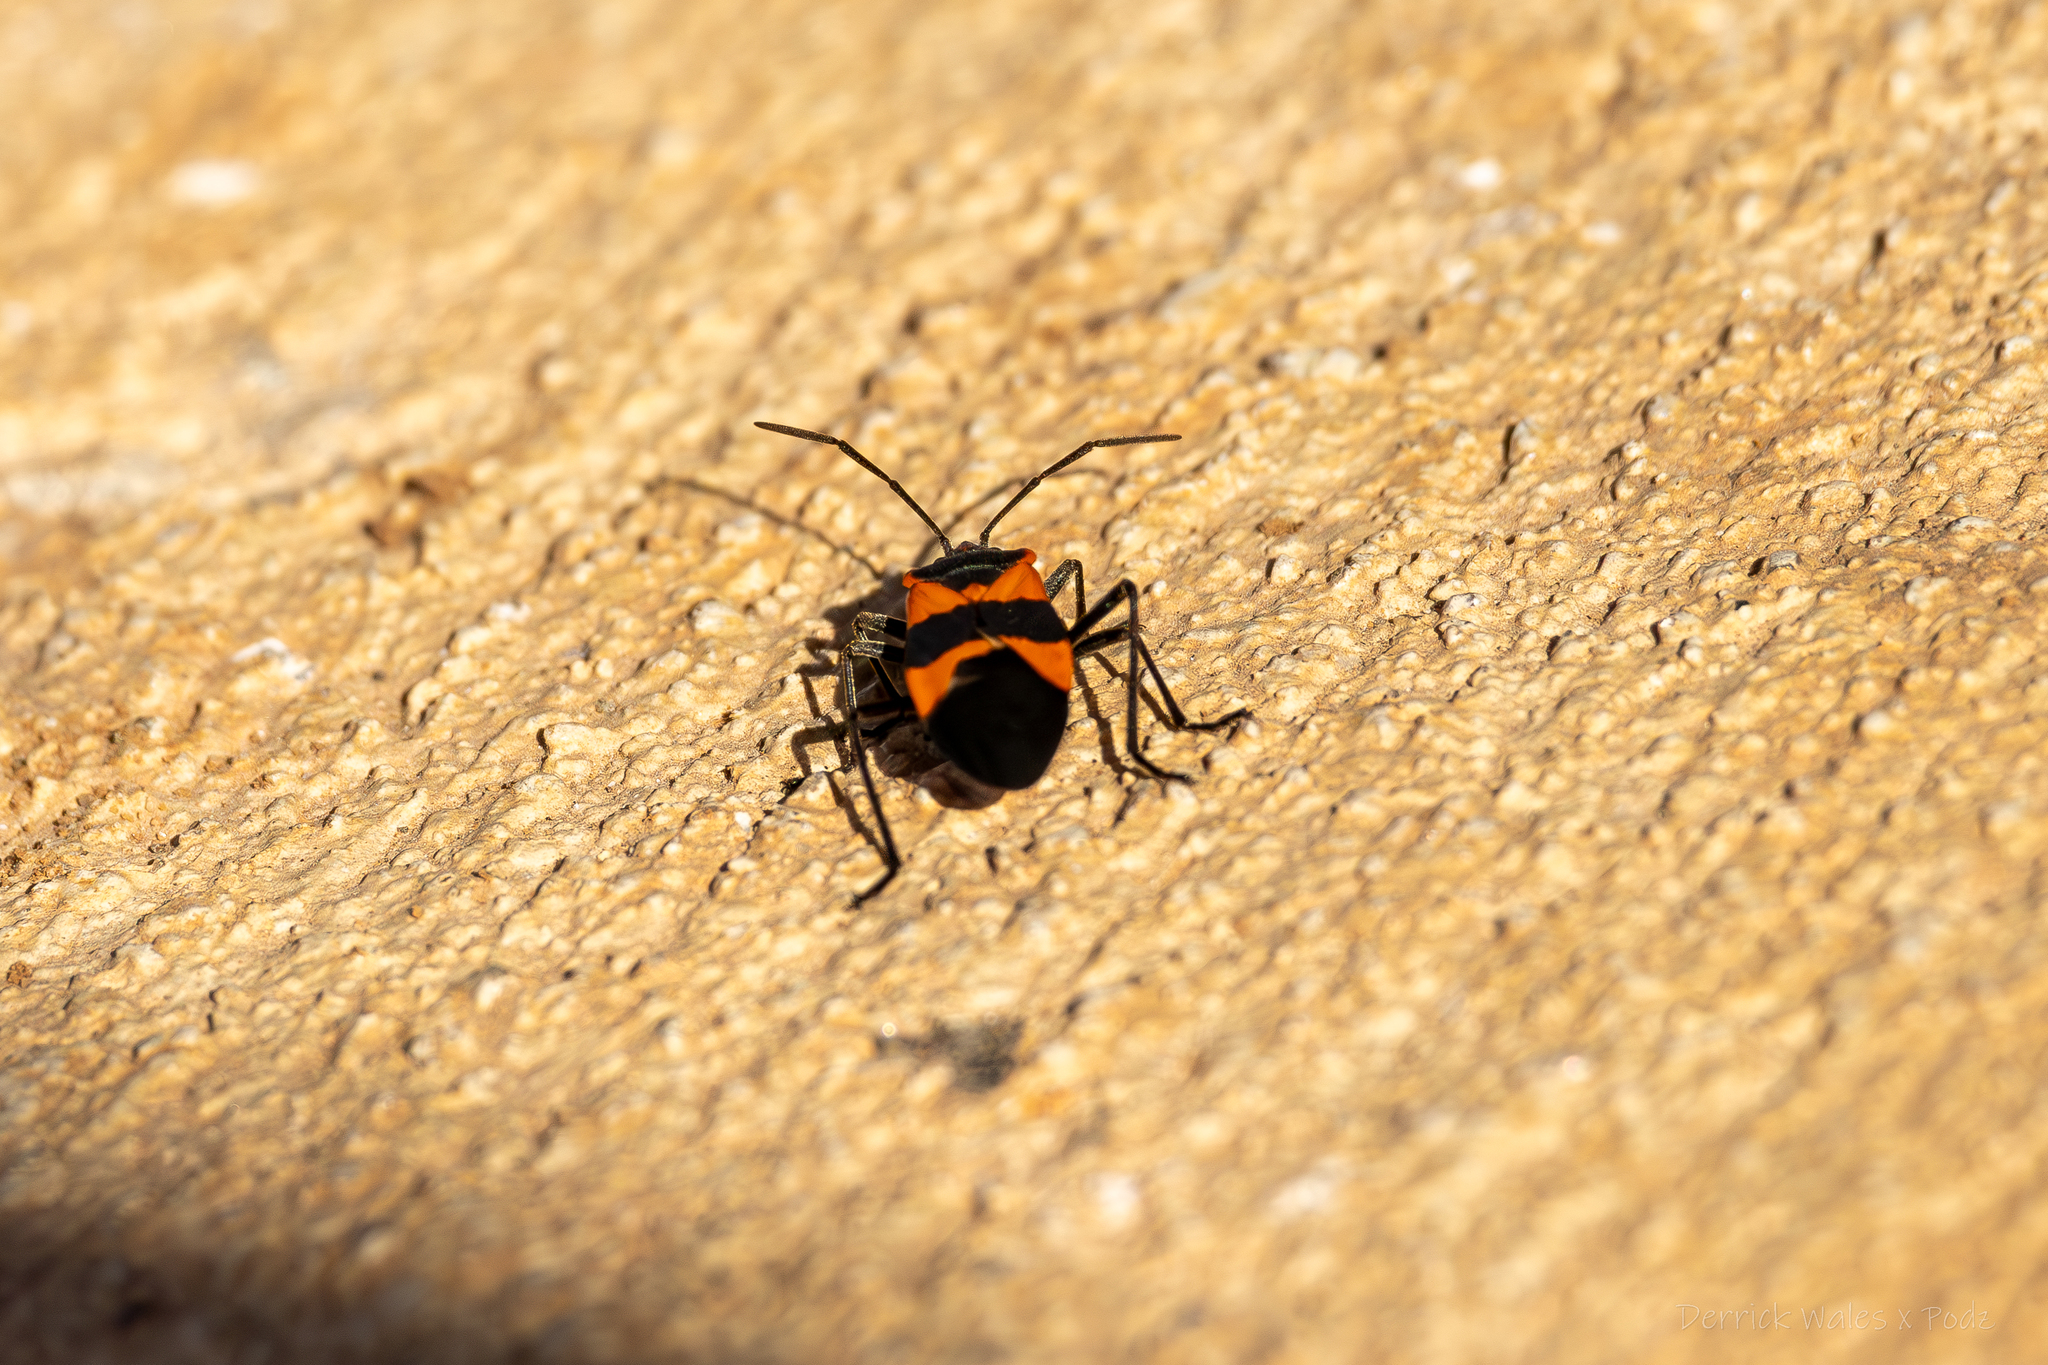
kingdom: Animalia
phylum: Arthropoda
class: Insecta
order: Hemiptera
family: Lygaeidae
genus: Oncopeltus
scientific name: Oncopeltus fasciatus
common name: Large milkweed bug
